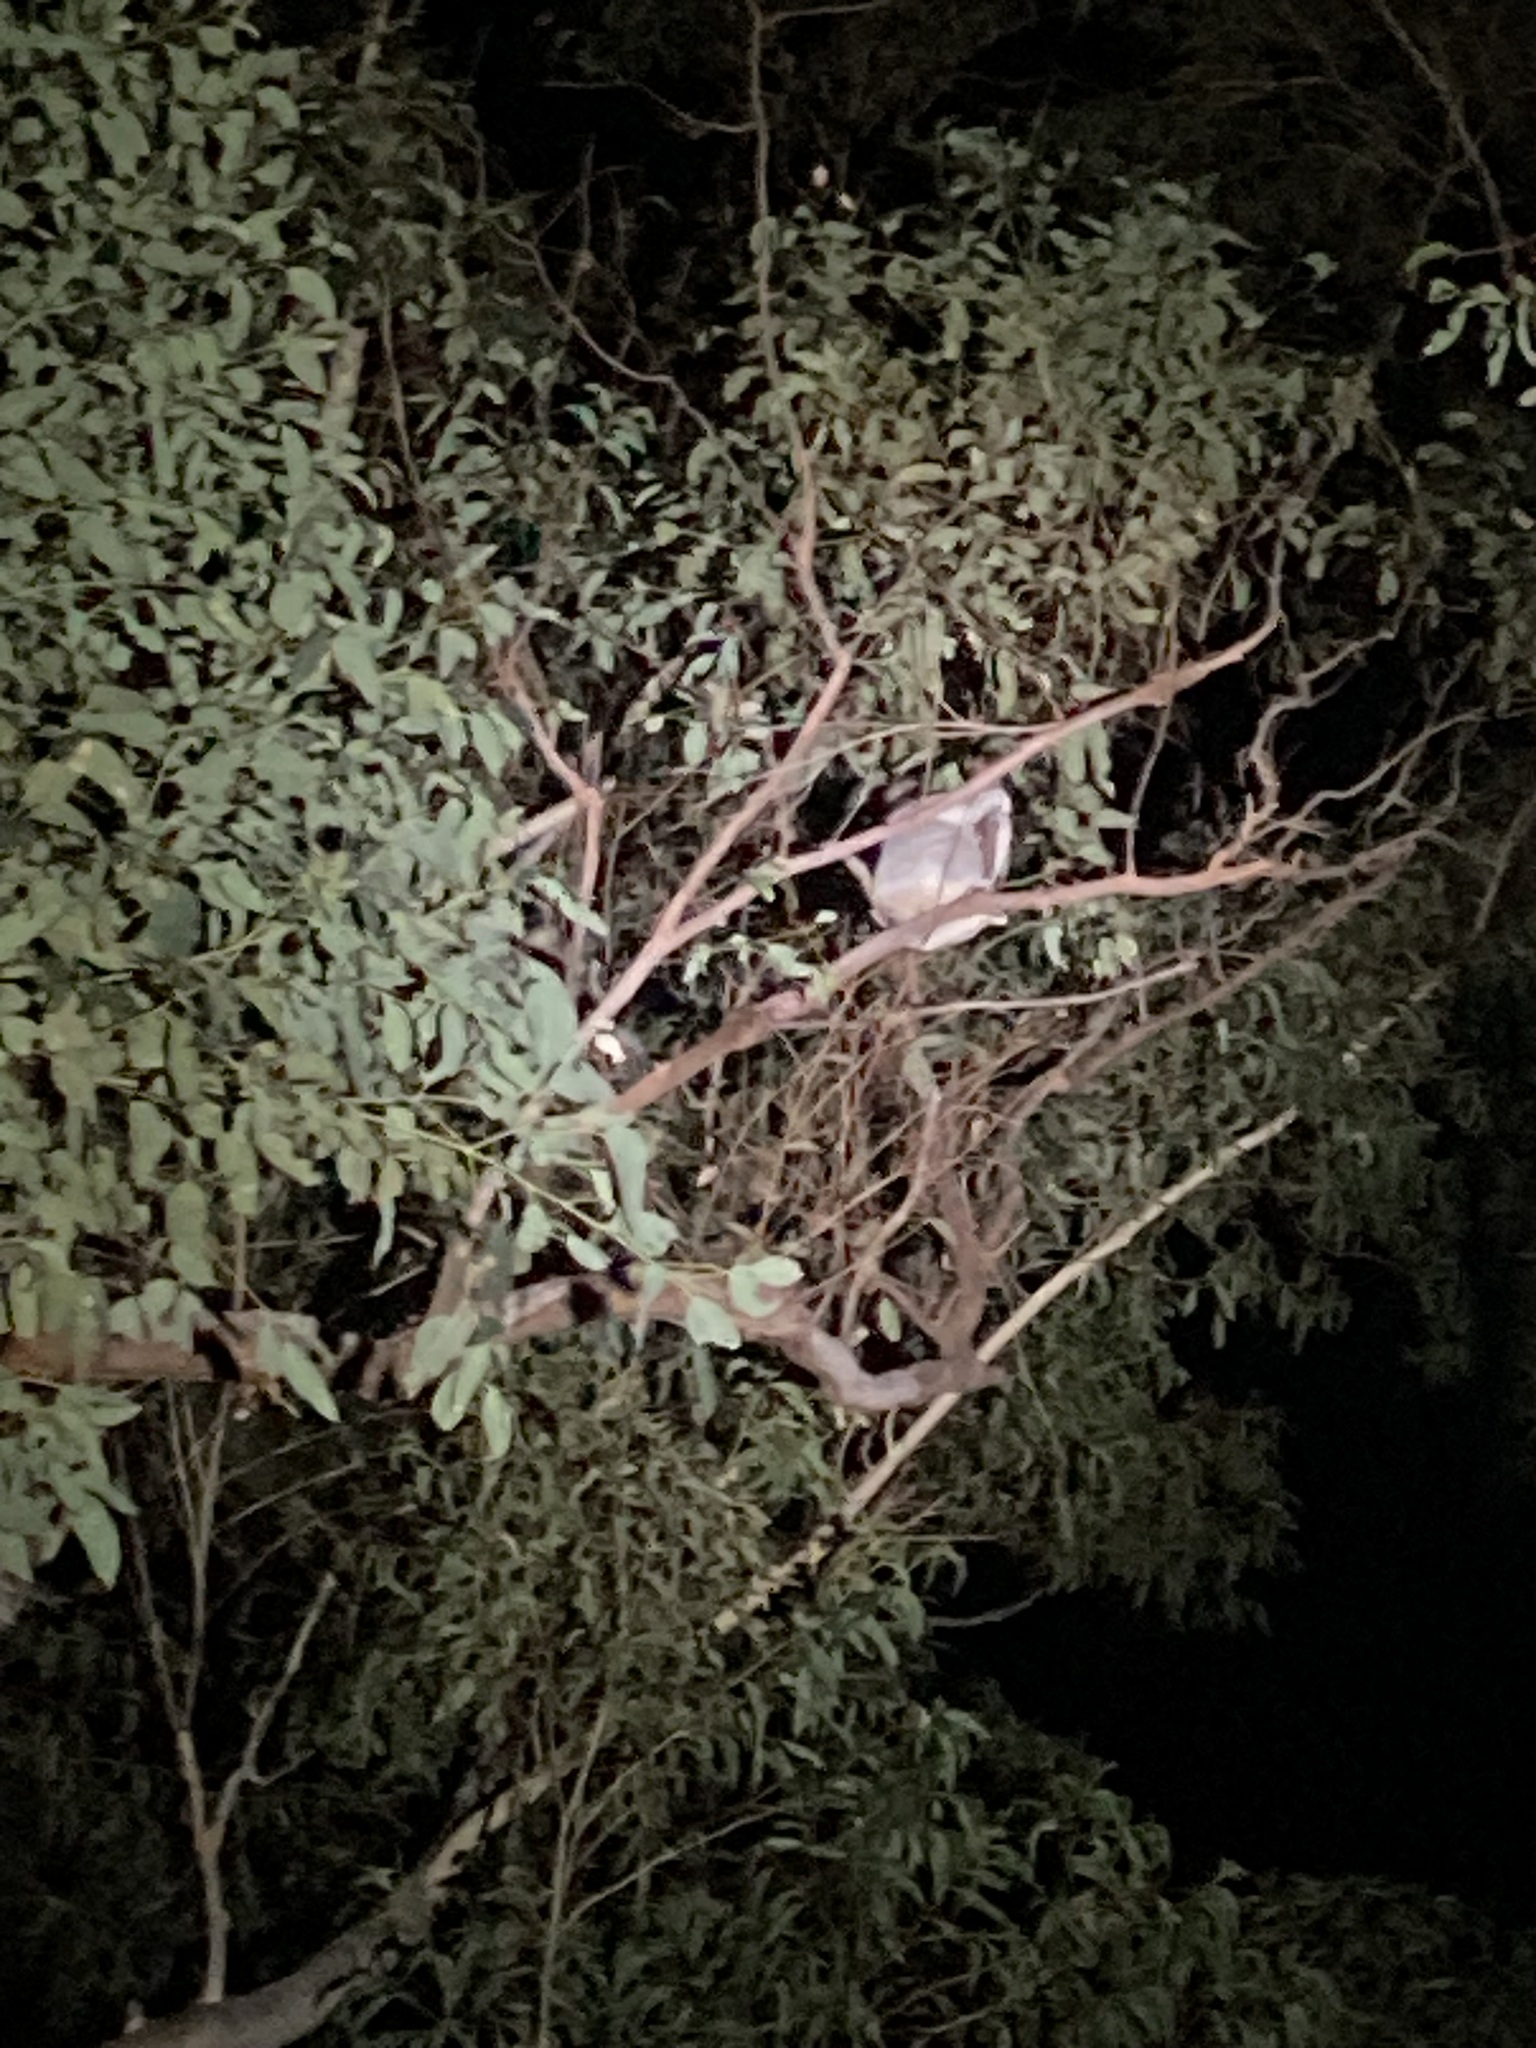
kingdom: Animalia
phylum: Chordata
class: Mammalia
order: Diprotodontia
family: Phascolarctidae
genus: Phascolarctos
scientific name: Phascolarctos cinereus
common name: Koala
